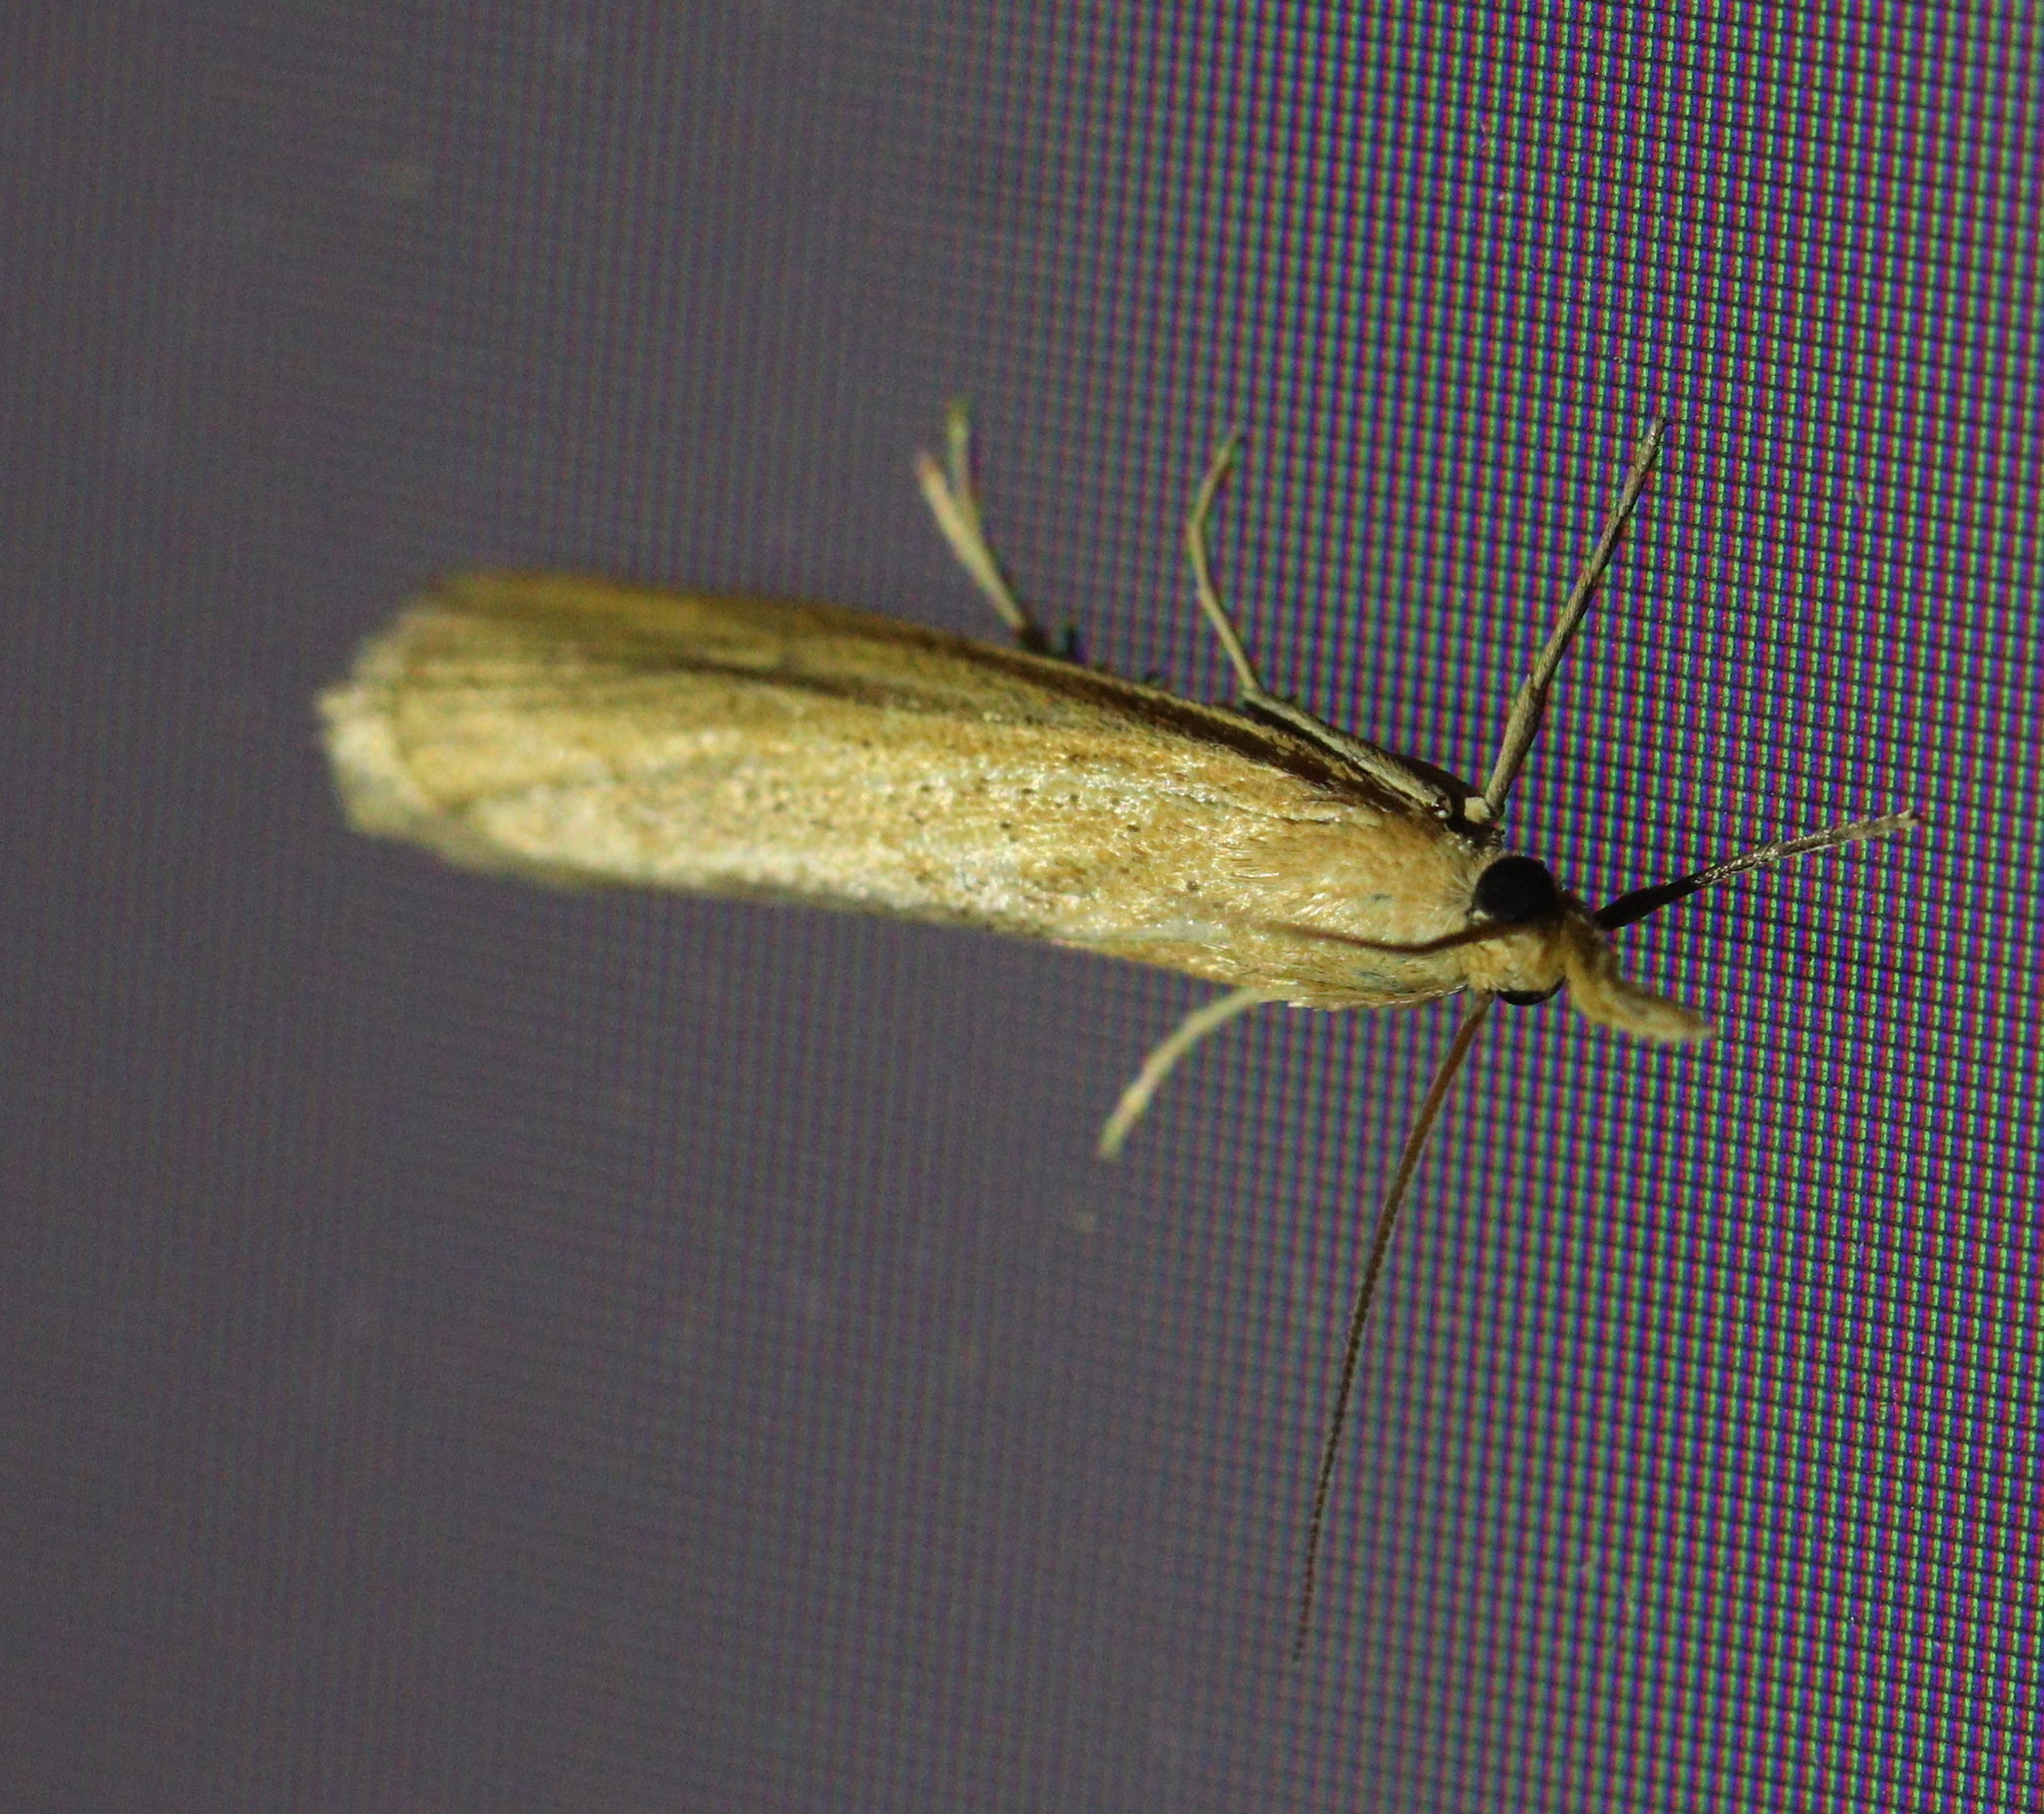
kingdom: Animalia
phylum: Arthropoda
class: Insecta
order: Lepidoptera
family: Crambidae
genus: Pediasia
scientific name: Pediasia luteella
